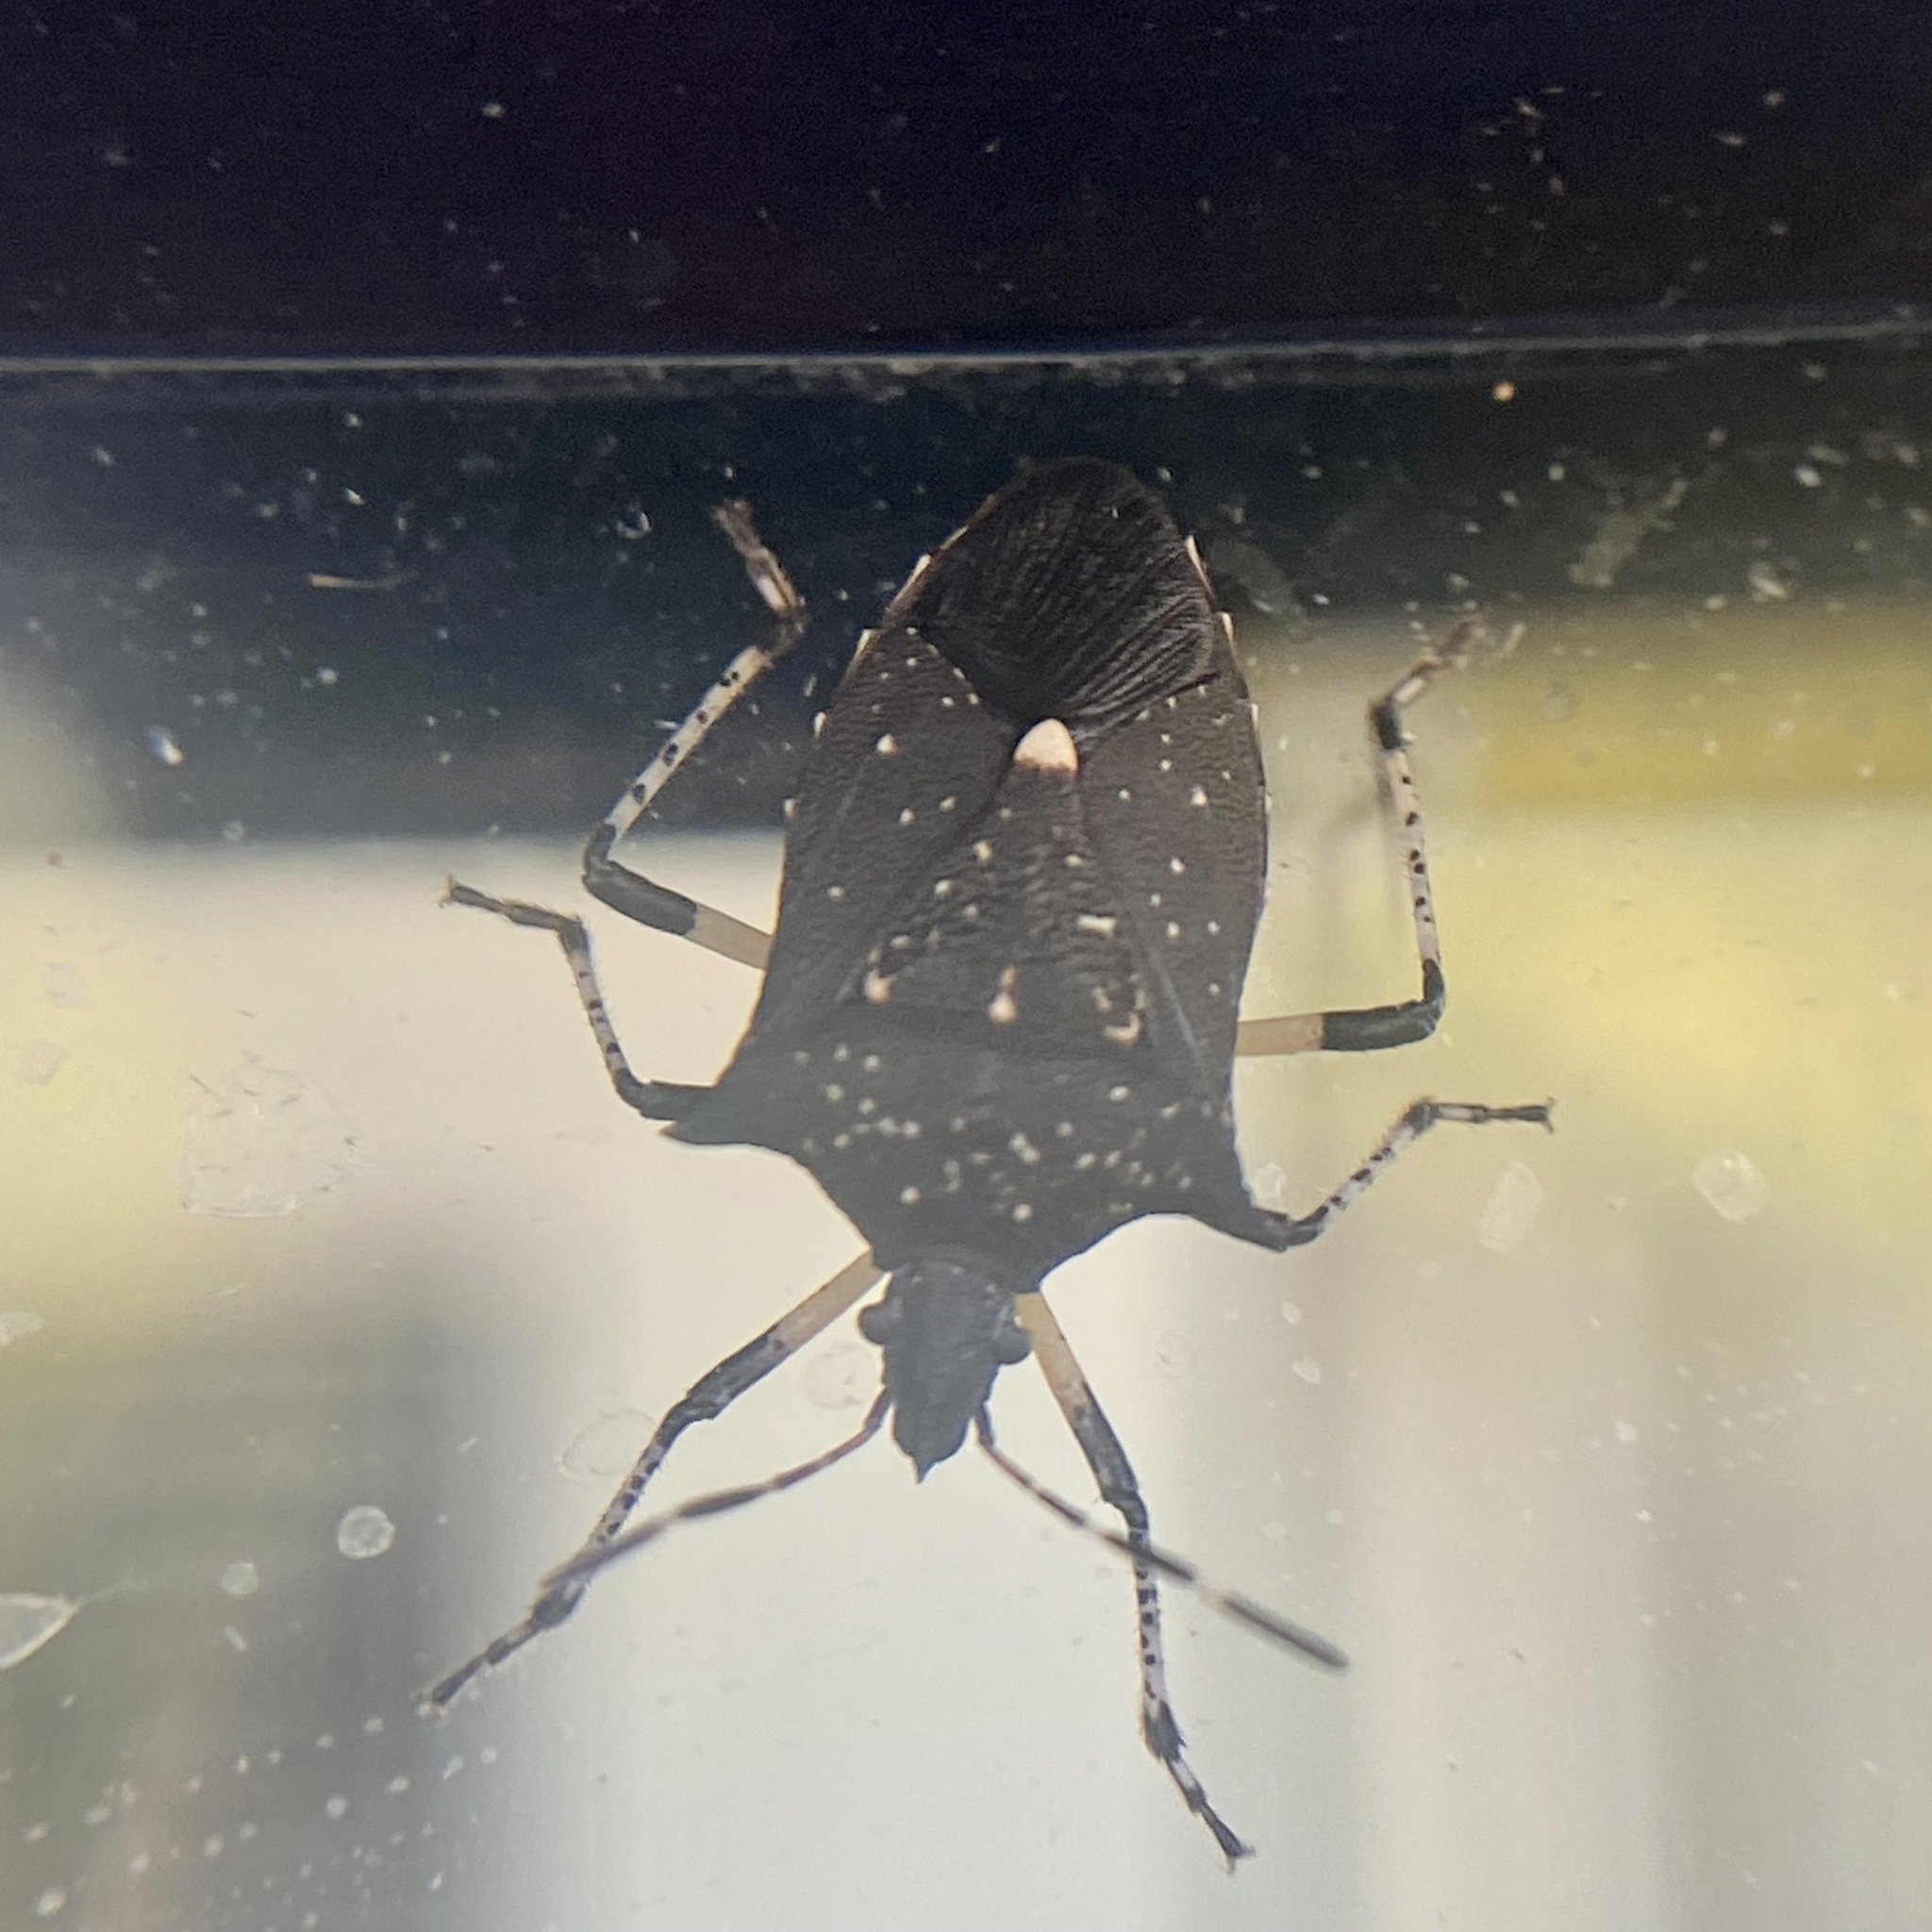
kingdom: Animalia
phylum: Arthropoda
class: Insecta
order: Hemiptera
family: Pentatomidae
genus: Proxys
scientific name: Proxys punctulatus
